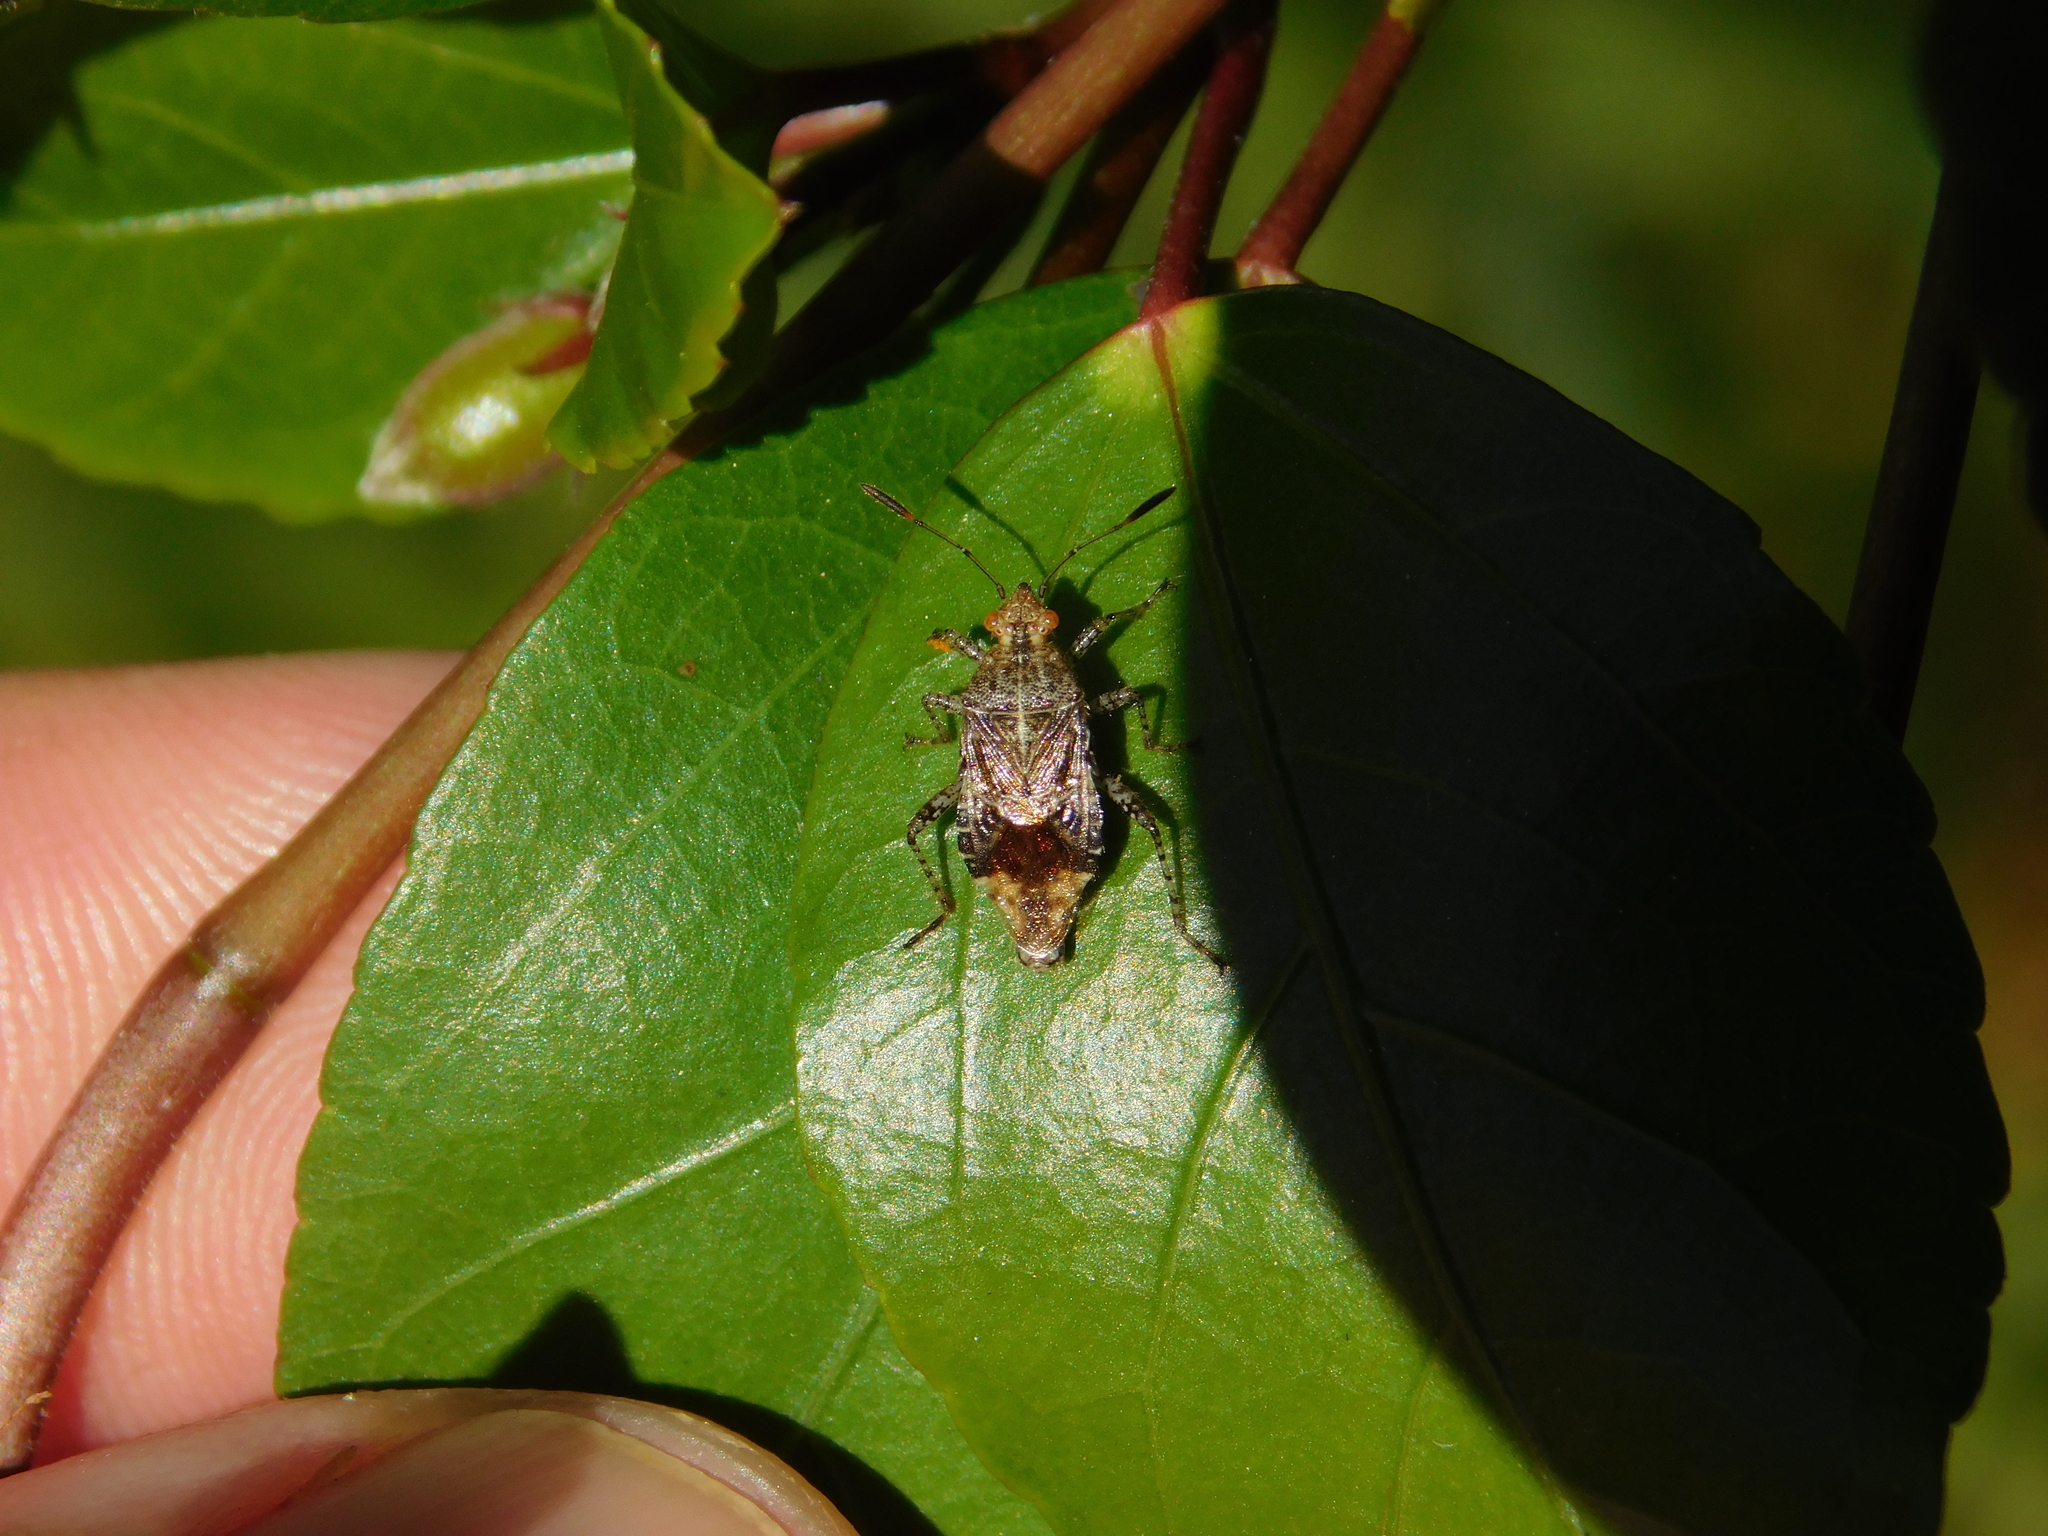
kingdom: Animalia
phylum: Arthropoda
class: Insecta
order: Hemiptera
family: Rhopalidae
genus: Niesthrea
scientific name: Niesthrea
